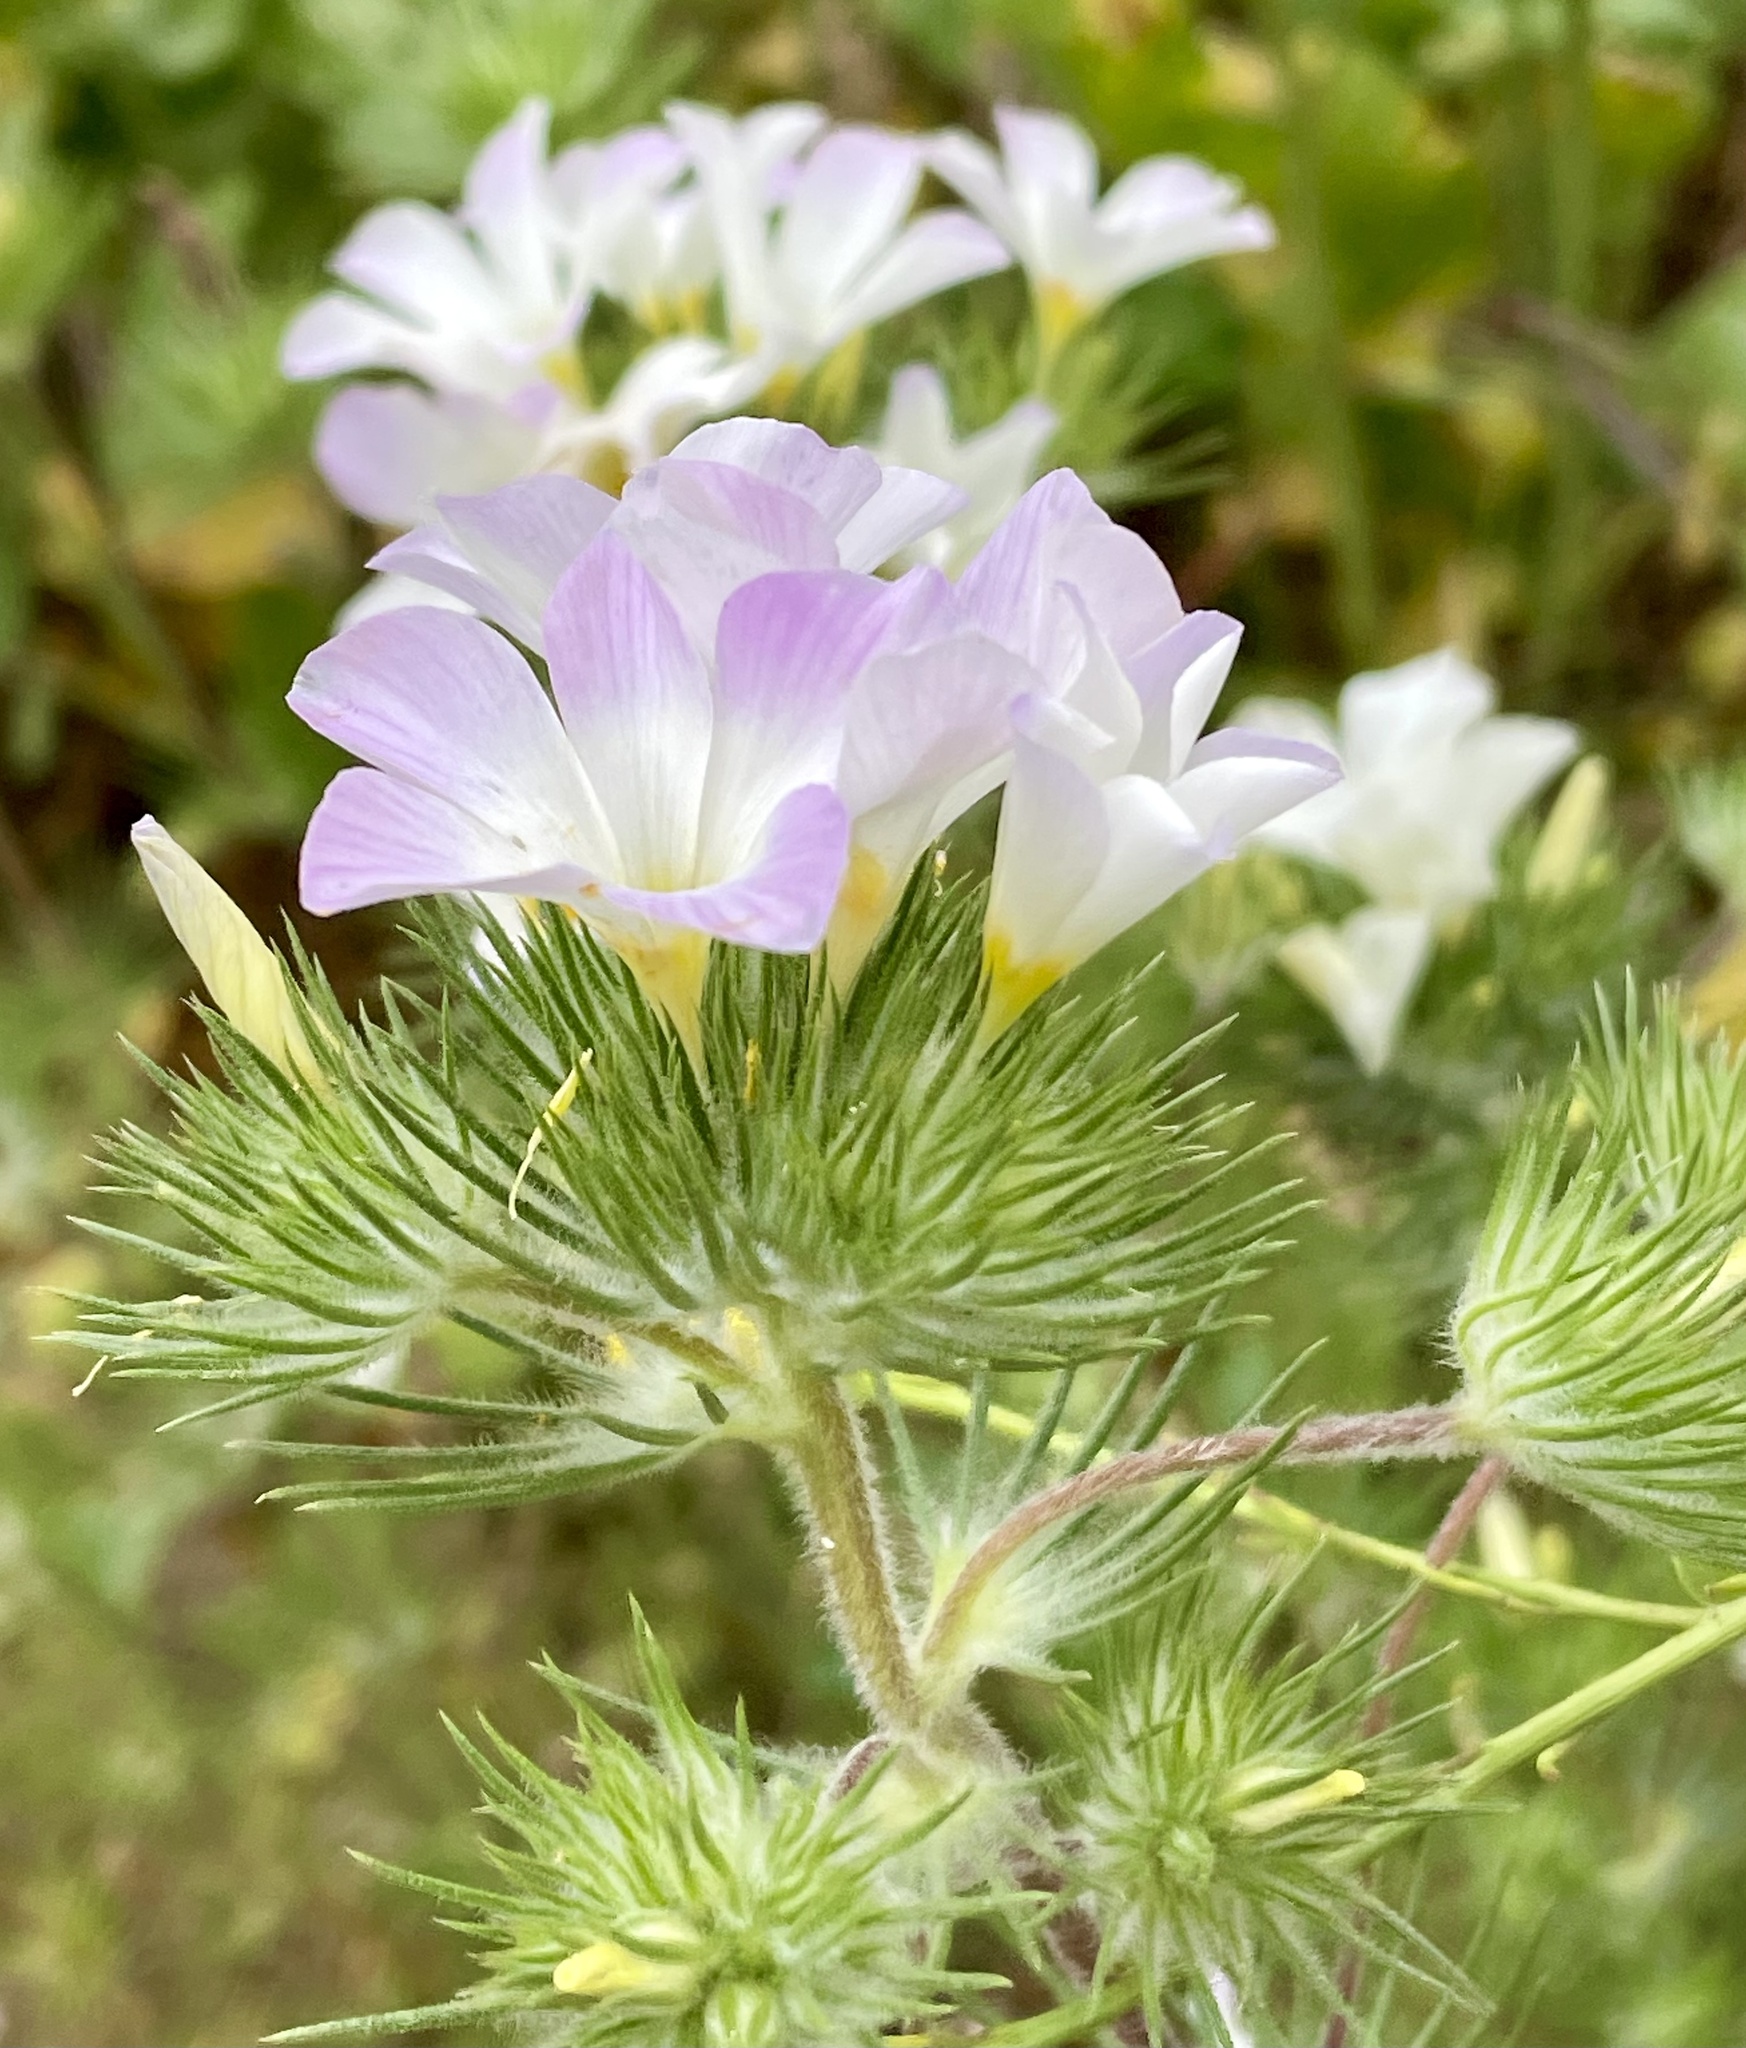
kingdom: Plantae
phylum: Tracheophyta
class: Magnoliopsida
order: Ericales
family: Polemoniaceae
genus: Leptosiphon
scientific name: Leptosiphon grandiflorus
